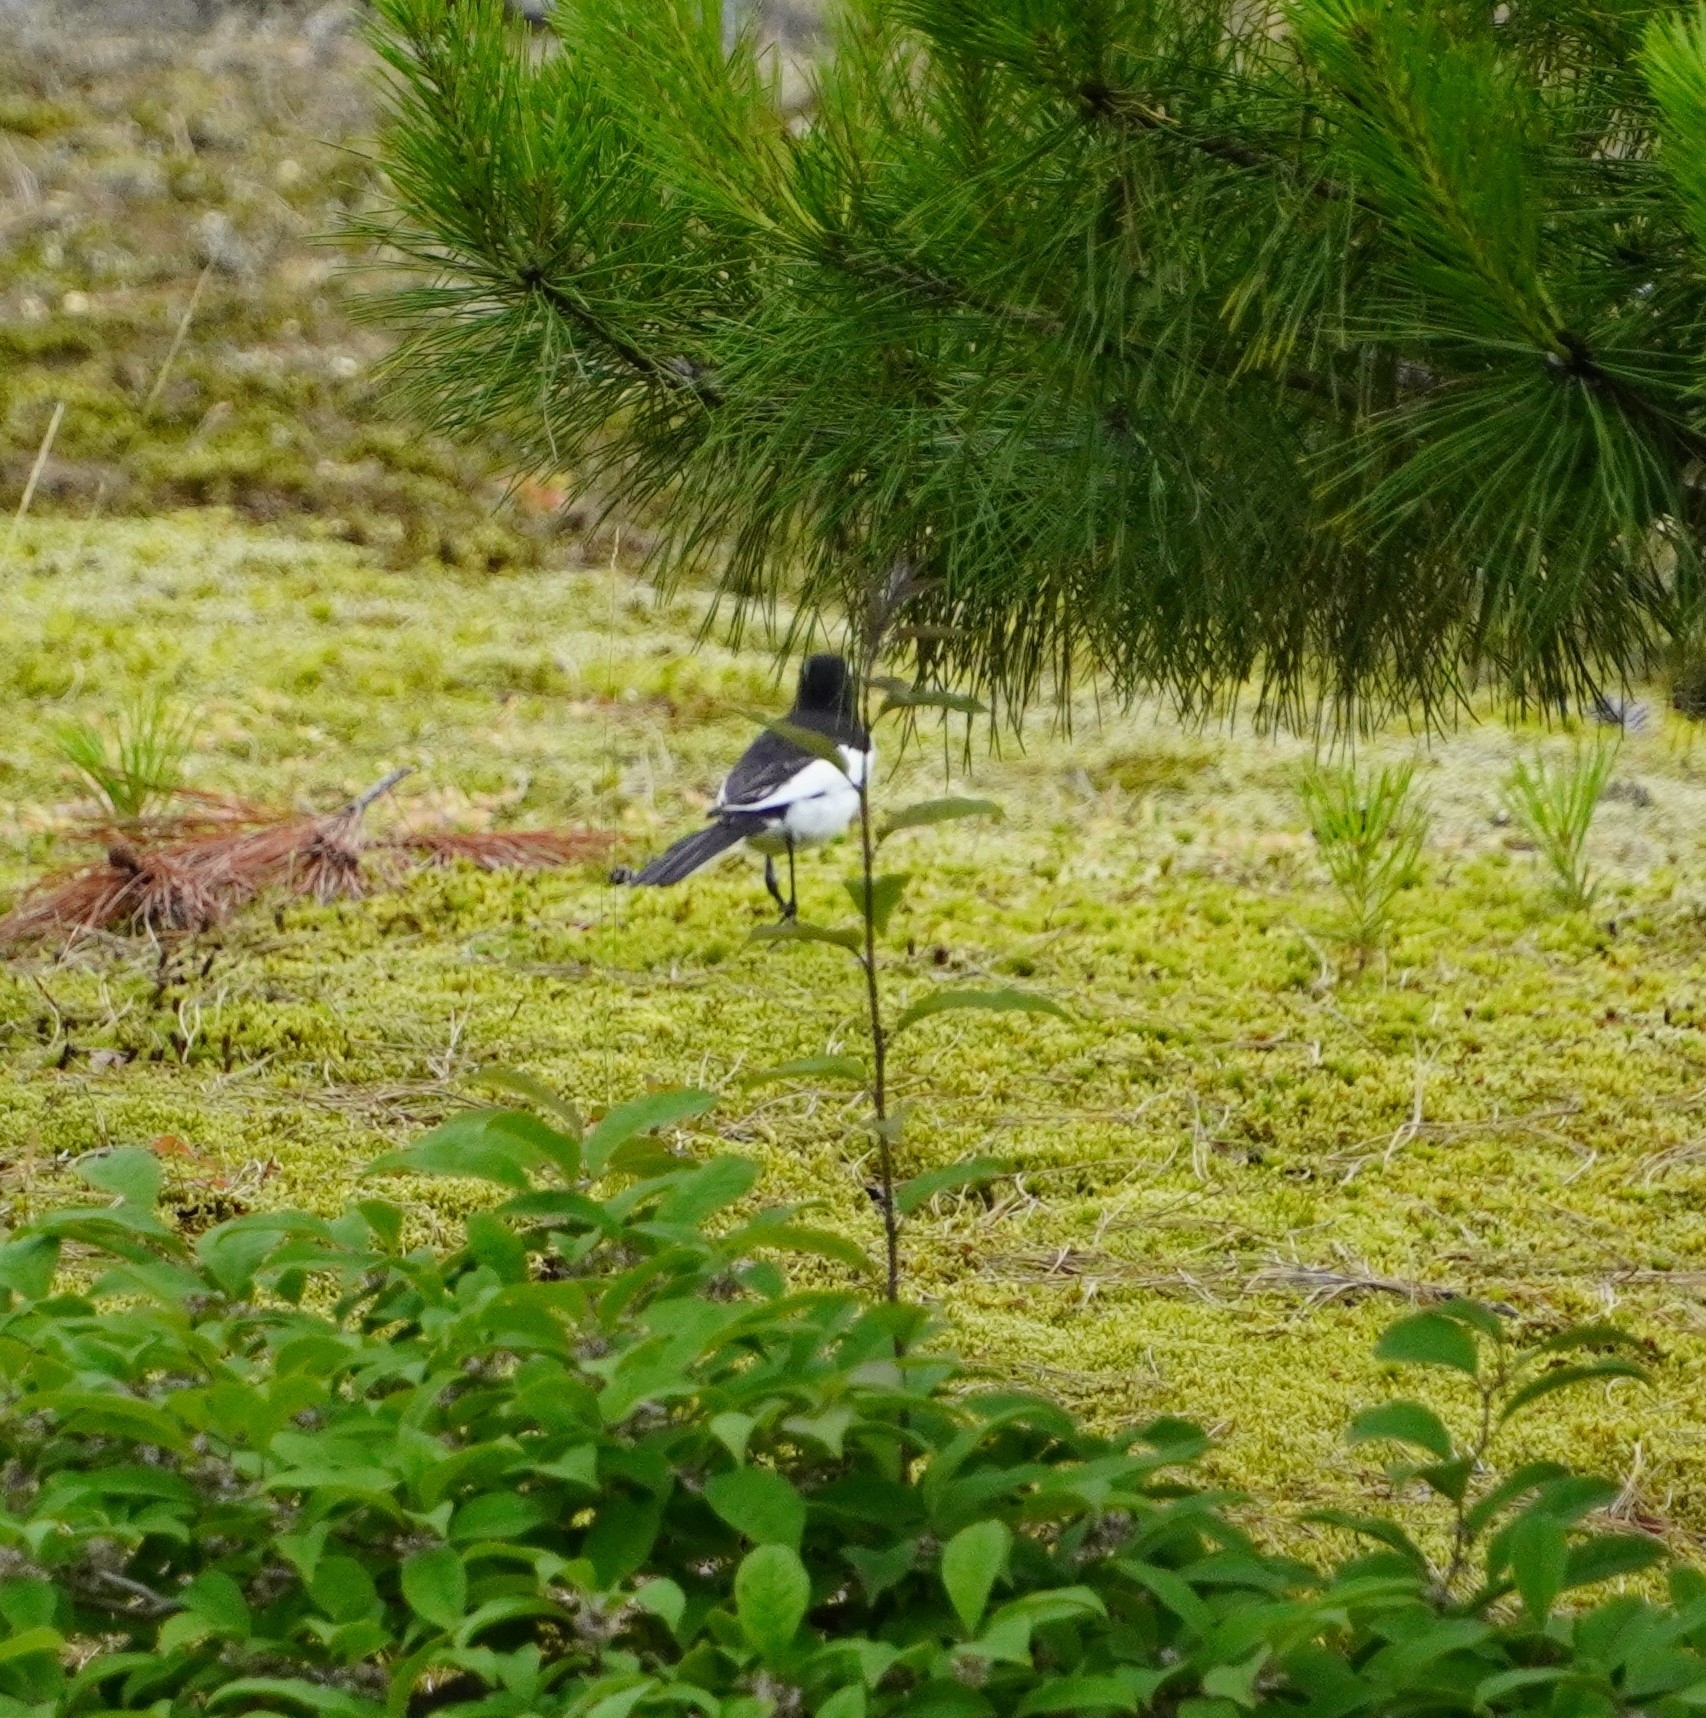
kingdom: Animalia
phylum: Chordata
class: Aves
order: Passeriformes
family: Motacillidae
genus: Motacilla
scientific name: Motacilla grandis
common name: Japanese wagtail
